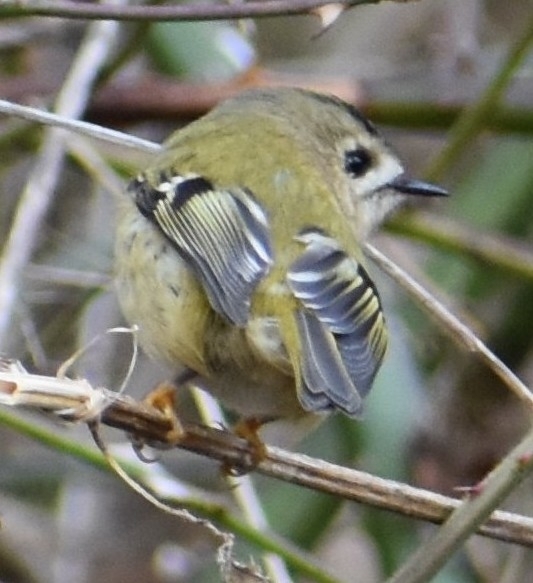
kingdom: Animalia
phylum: Chordata
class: Aves
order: Passeriformes
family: Regulidae
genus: Regulus
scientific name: Regulus regulus
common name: Goldcrest
